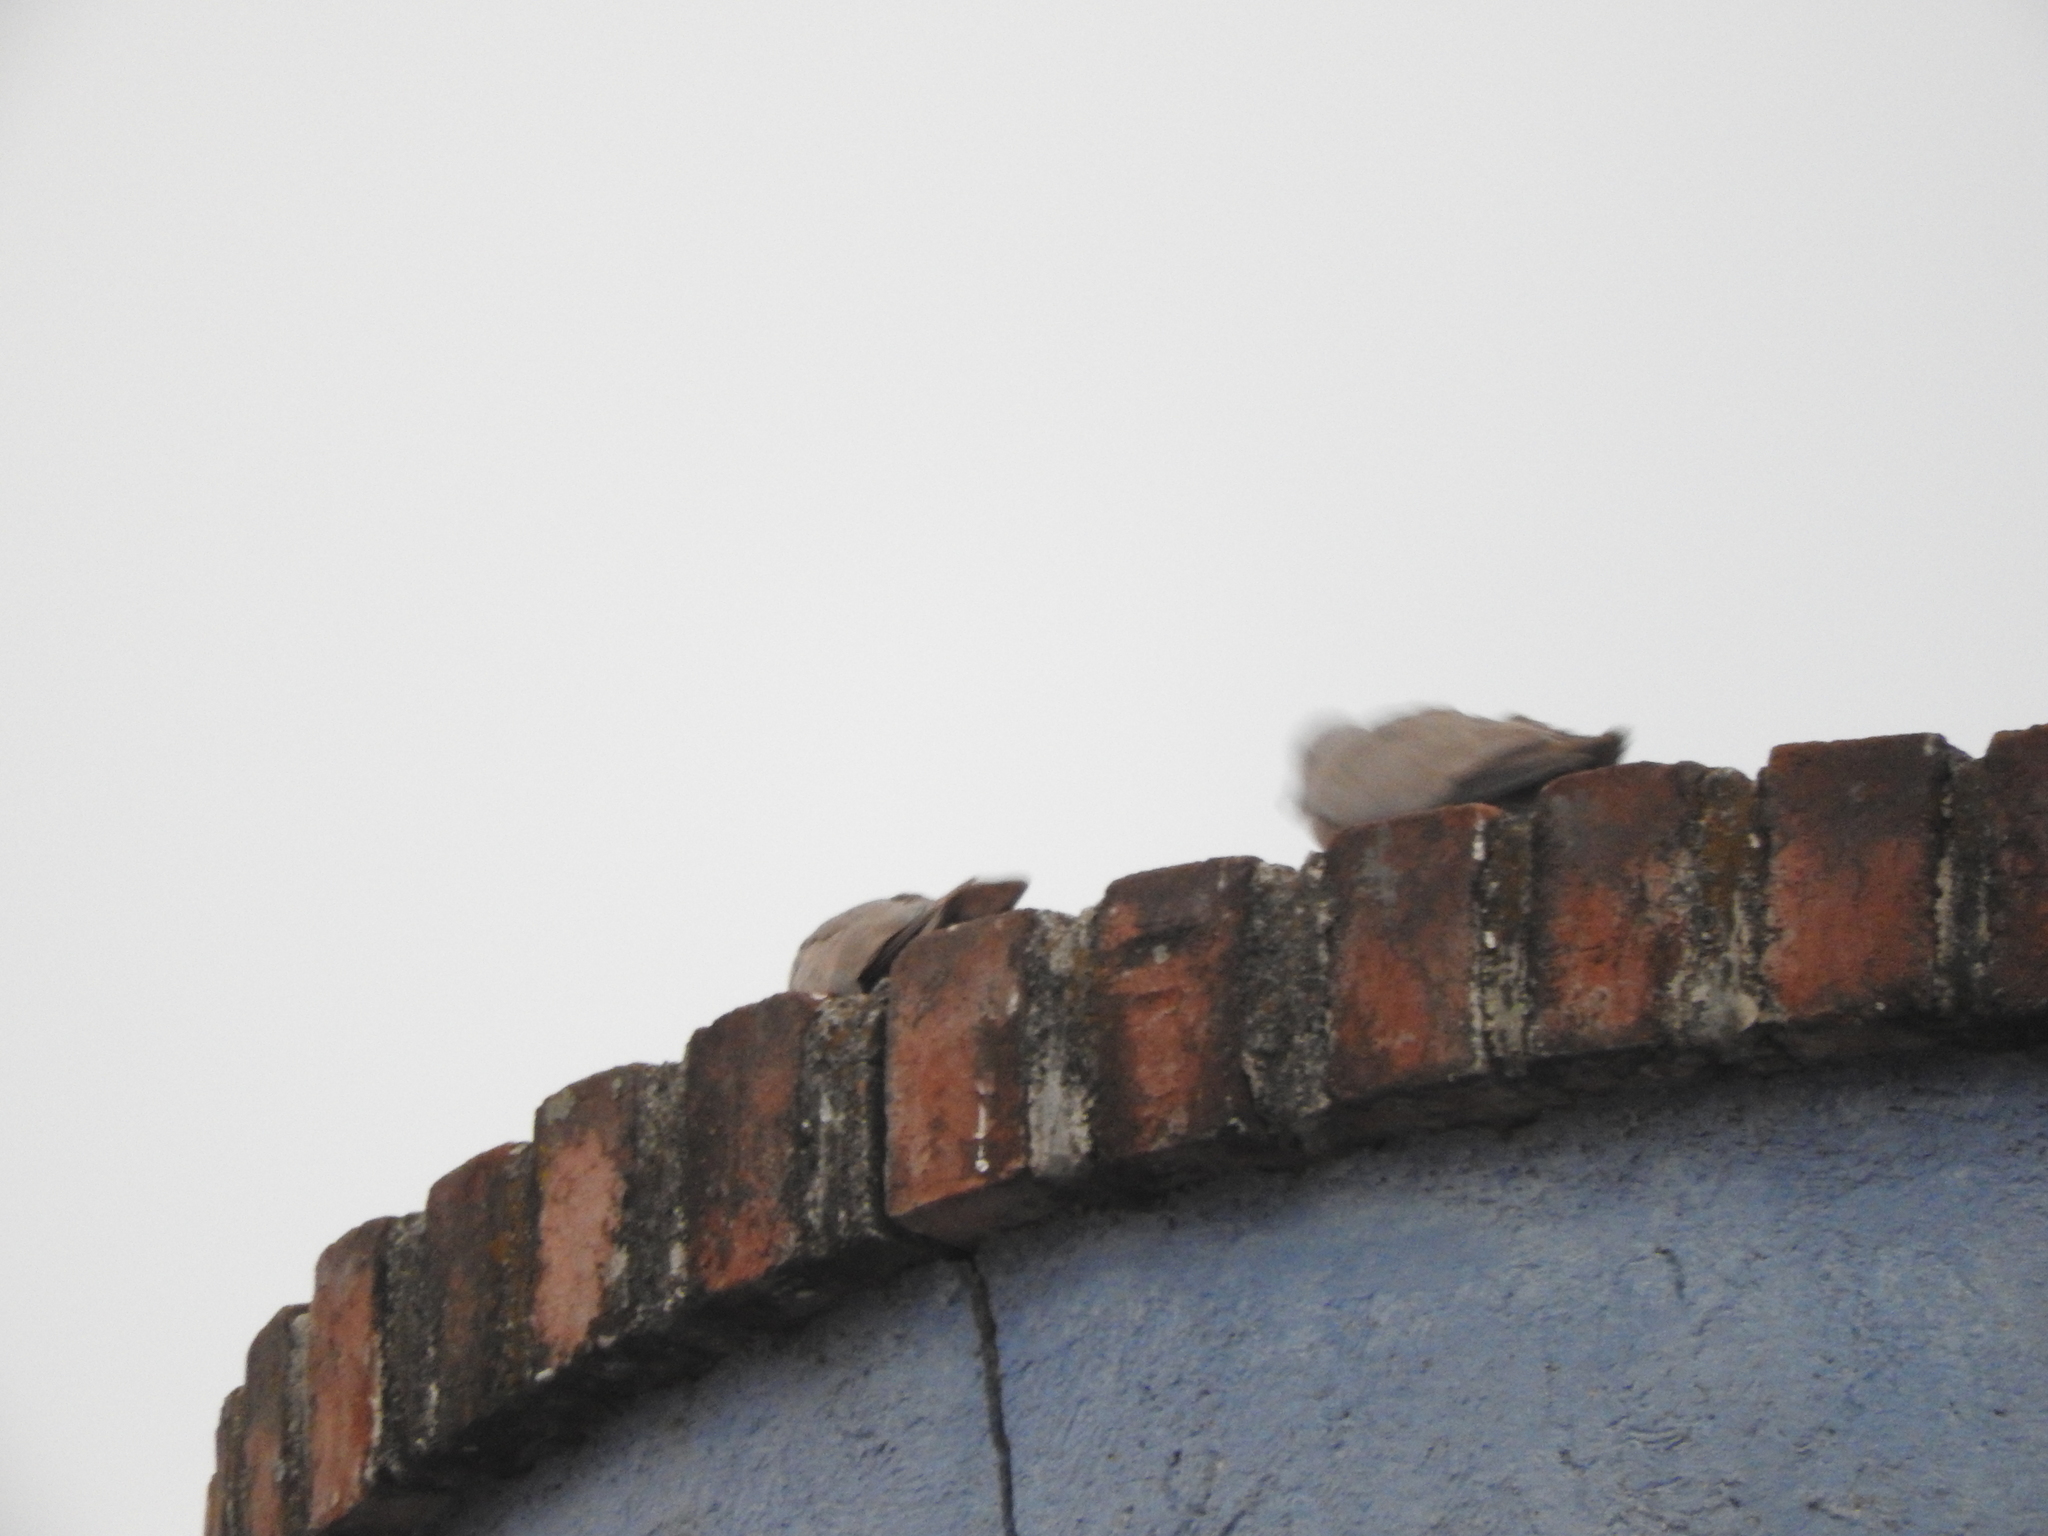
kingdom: Animalia
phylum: Chordata
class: Aves
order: Columbiformes
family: Columbidae
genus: Streptopelia
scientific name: Streptopelia decaocto
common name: Eurasian collared dove
